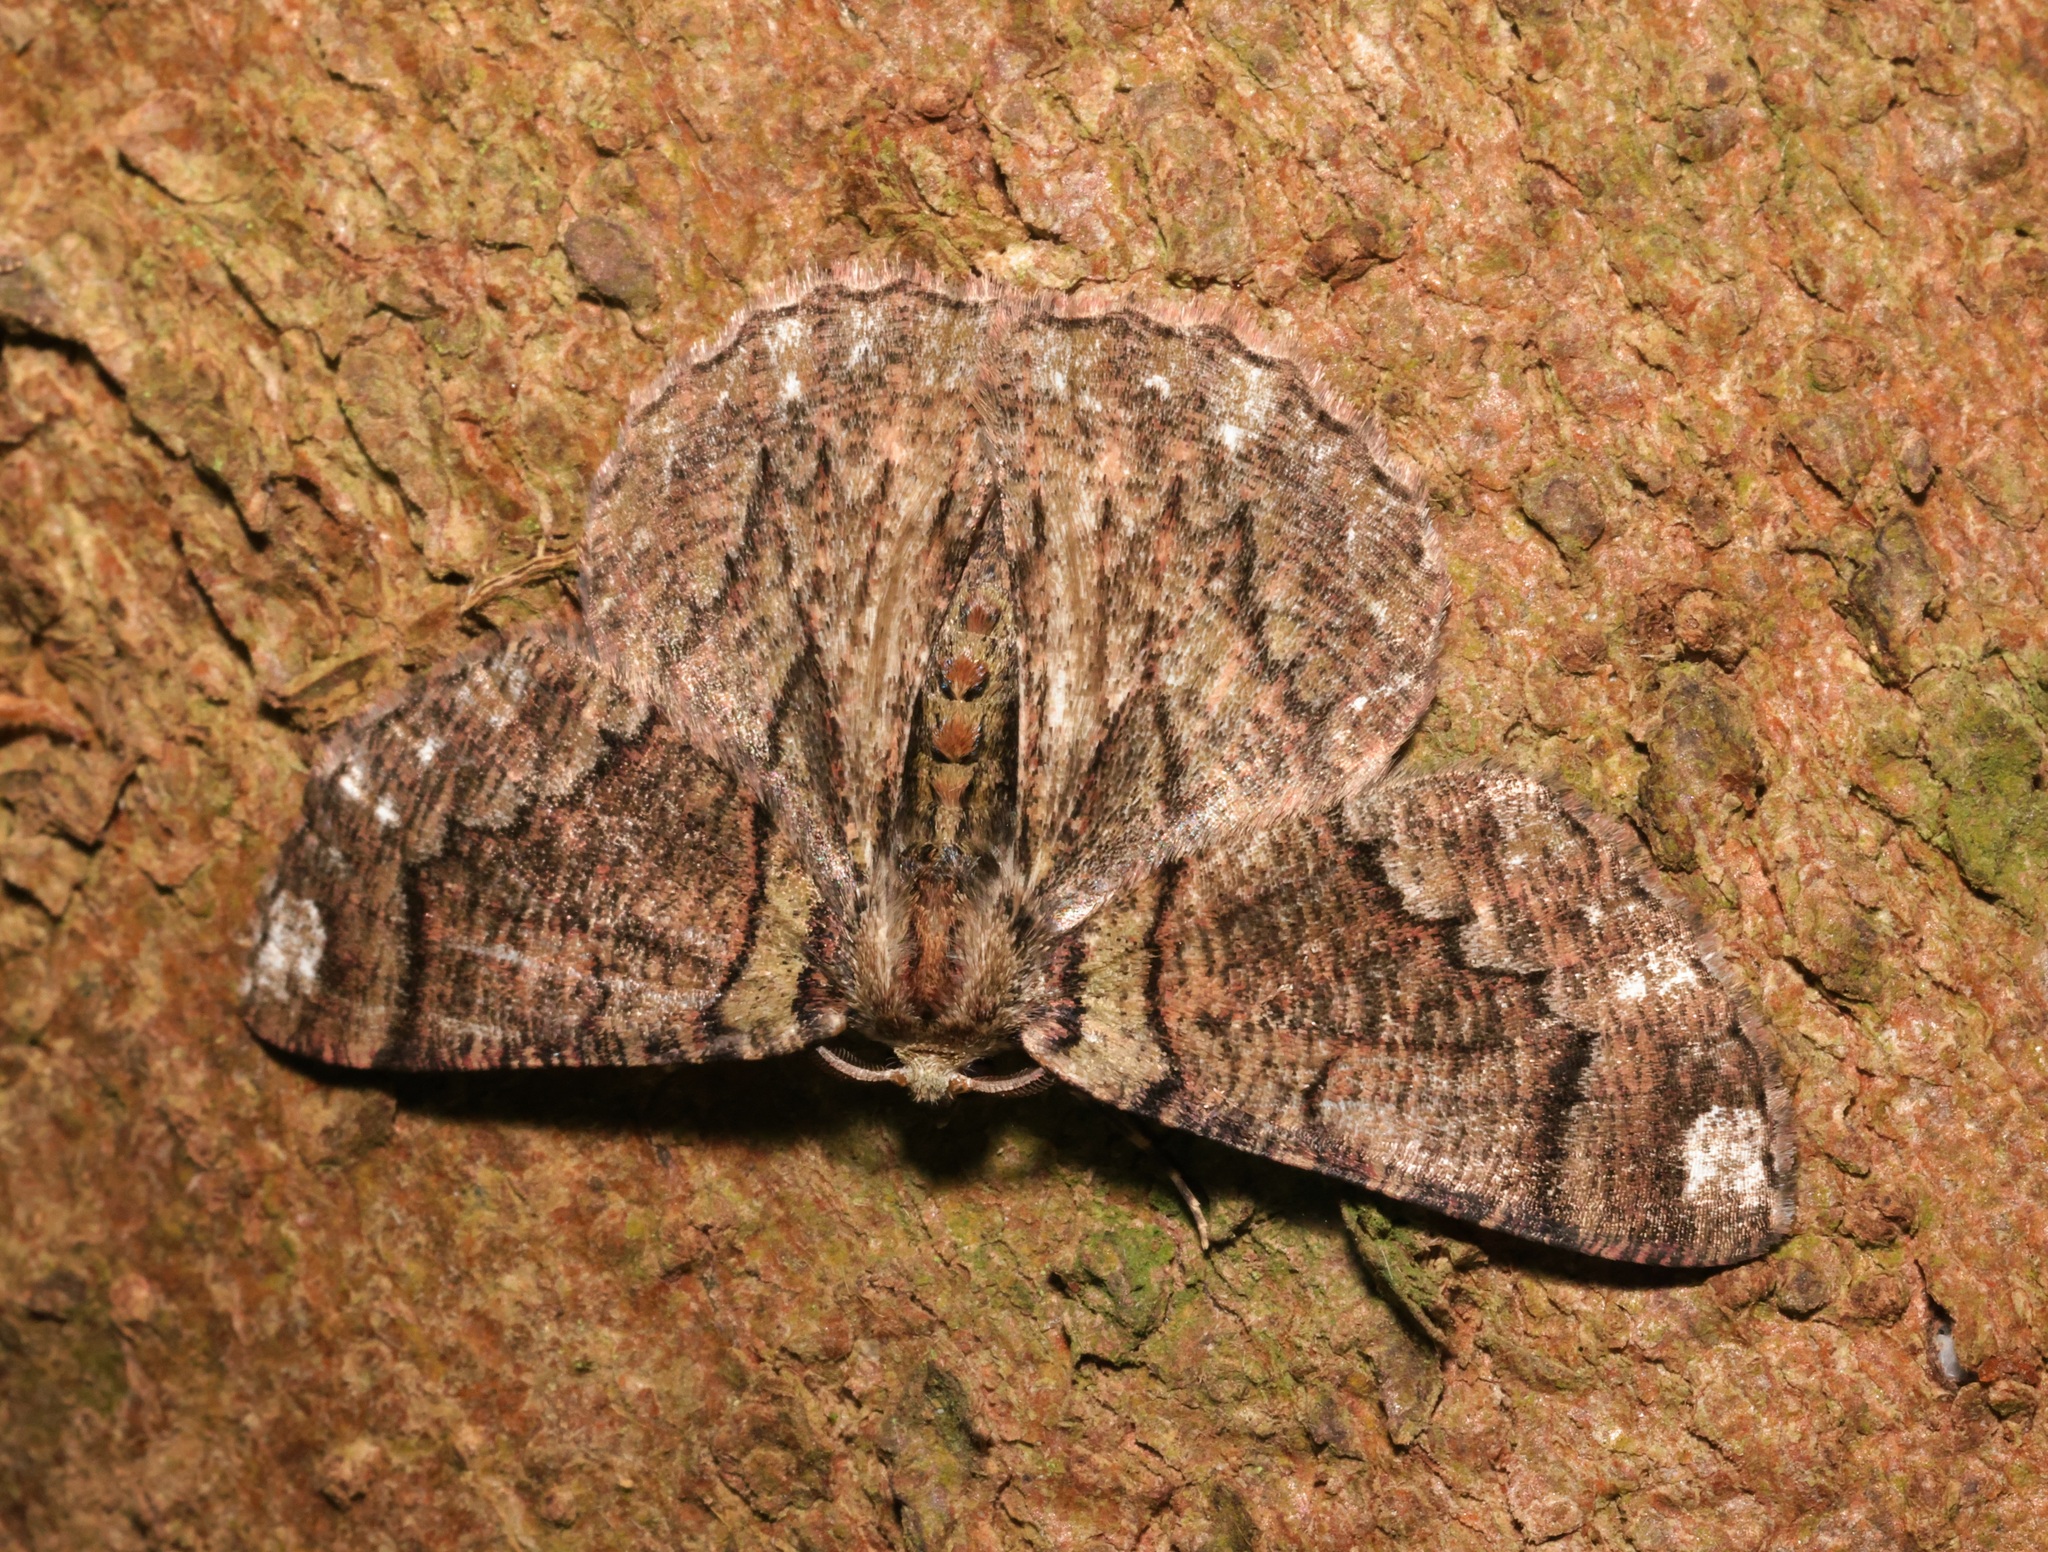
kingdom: Animalia
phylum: Arthropoda
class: Insecta
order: Lepidoptera
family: Geometridae
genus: Lophophelma
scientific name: Lophophelma calaurops
